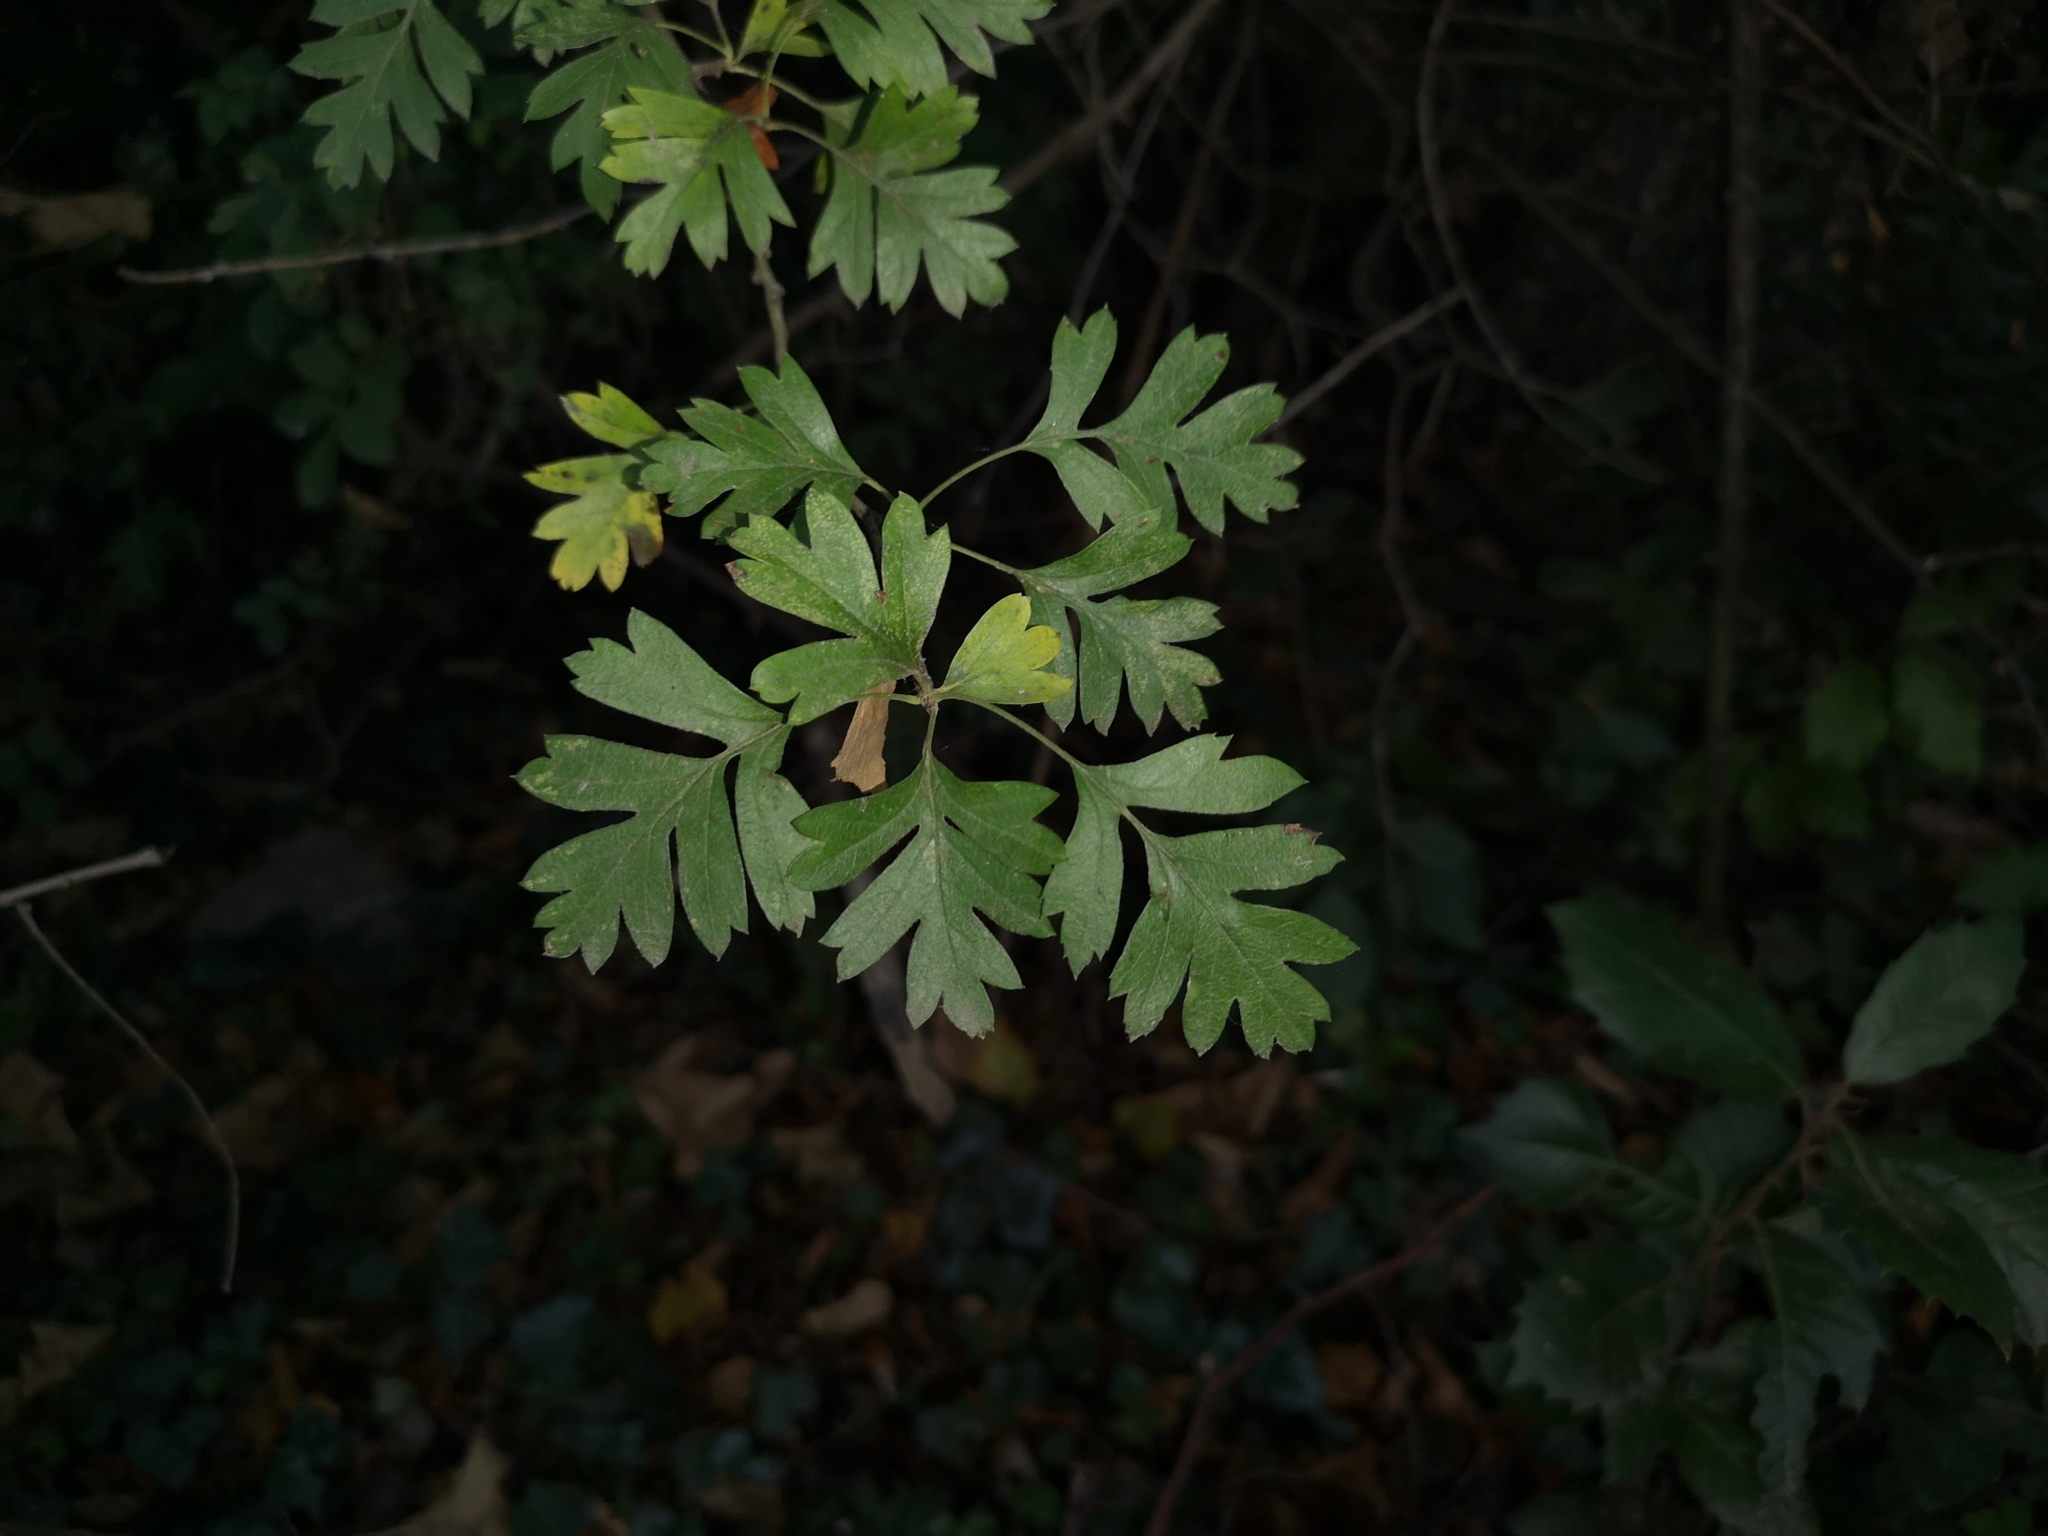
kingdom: Plantae
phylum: Tracheophyta
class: Magnoliopsida
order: Rosales
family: Rosaceae
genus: Crataegus
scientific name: Crataegus monogyna
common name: Hawthorn
